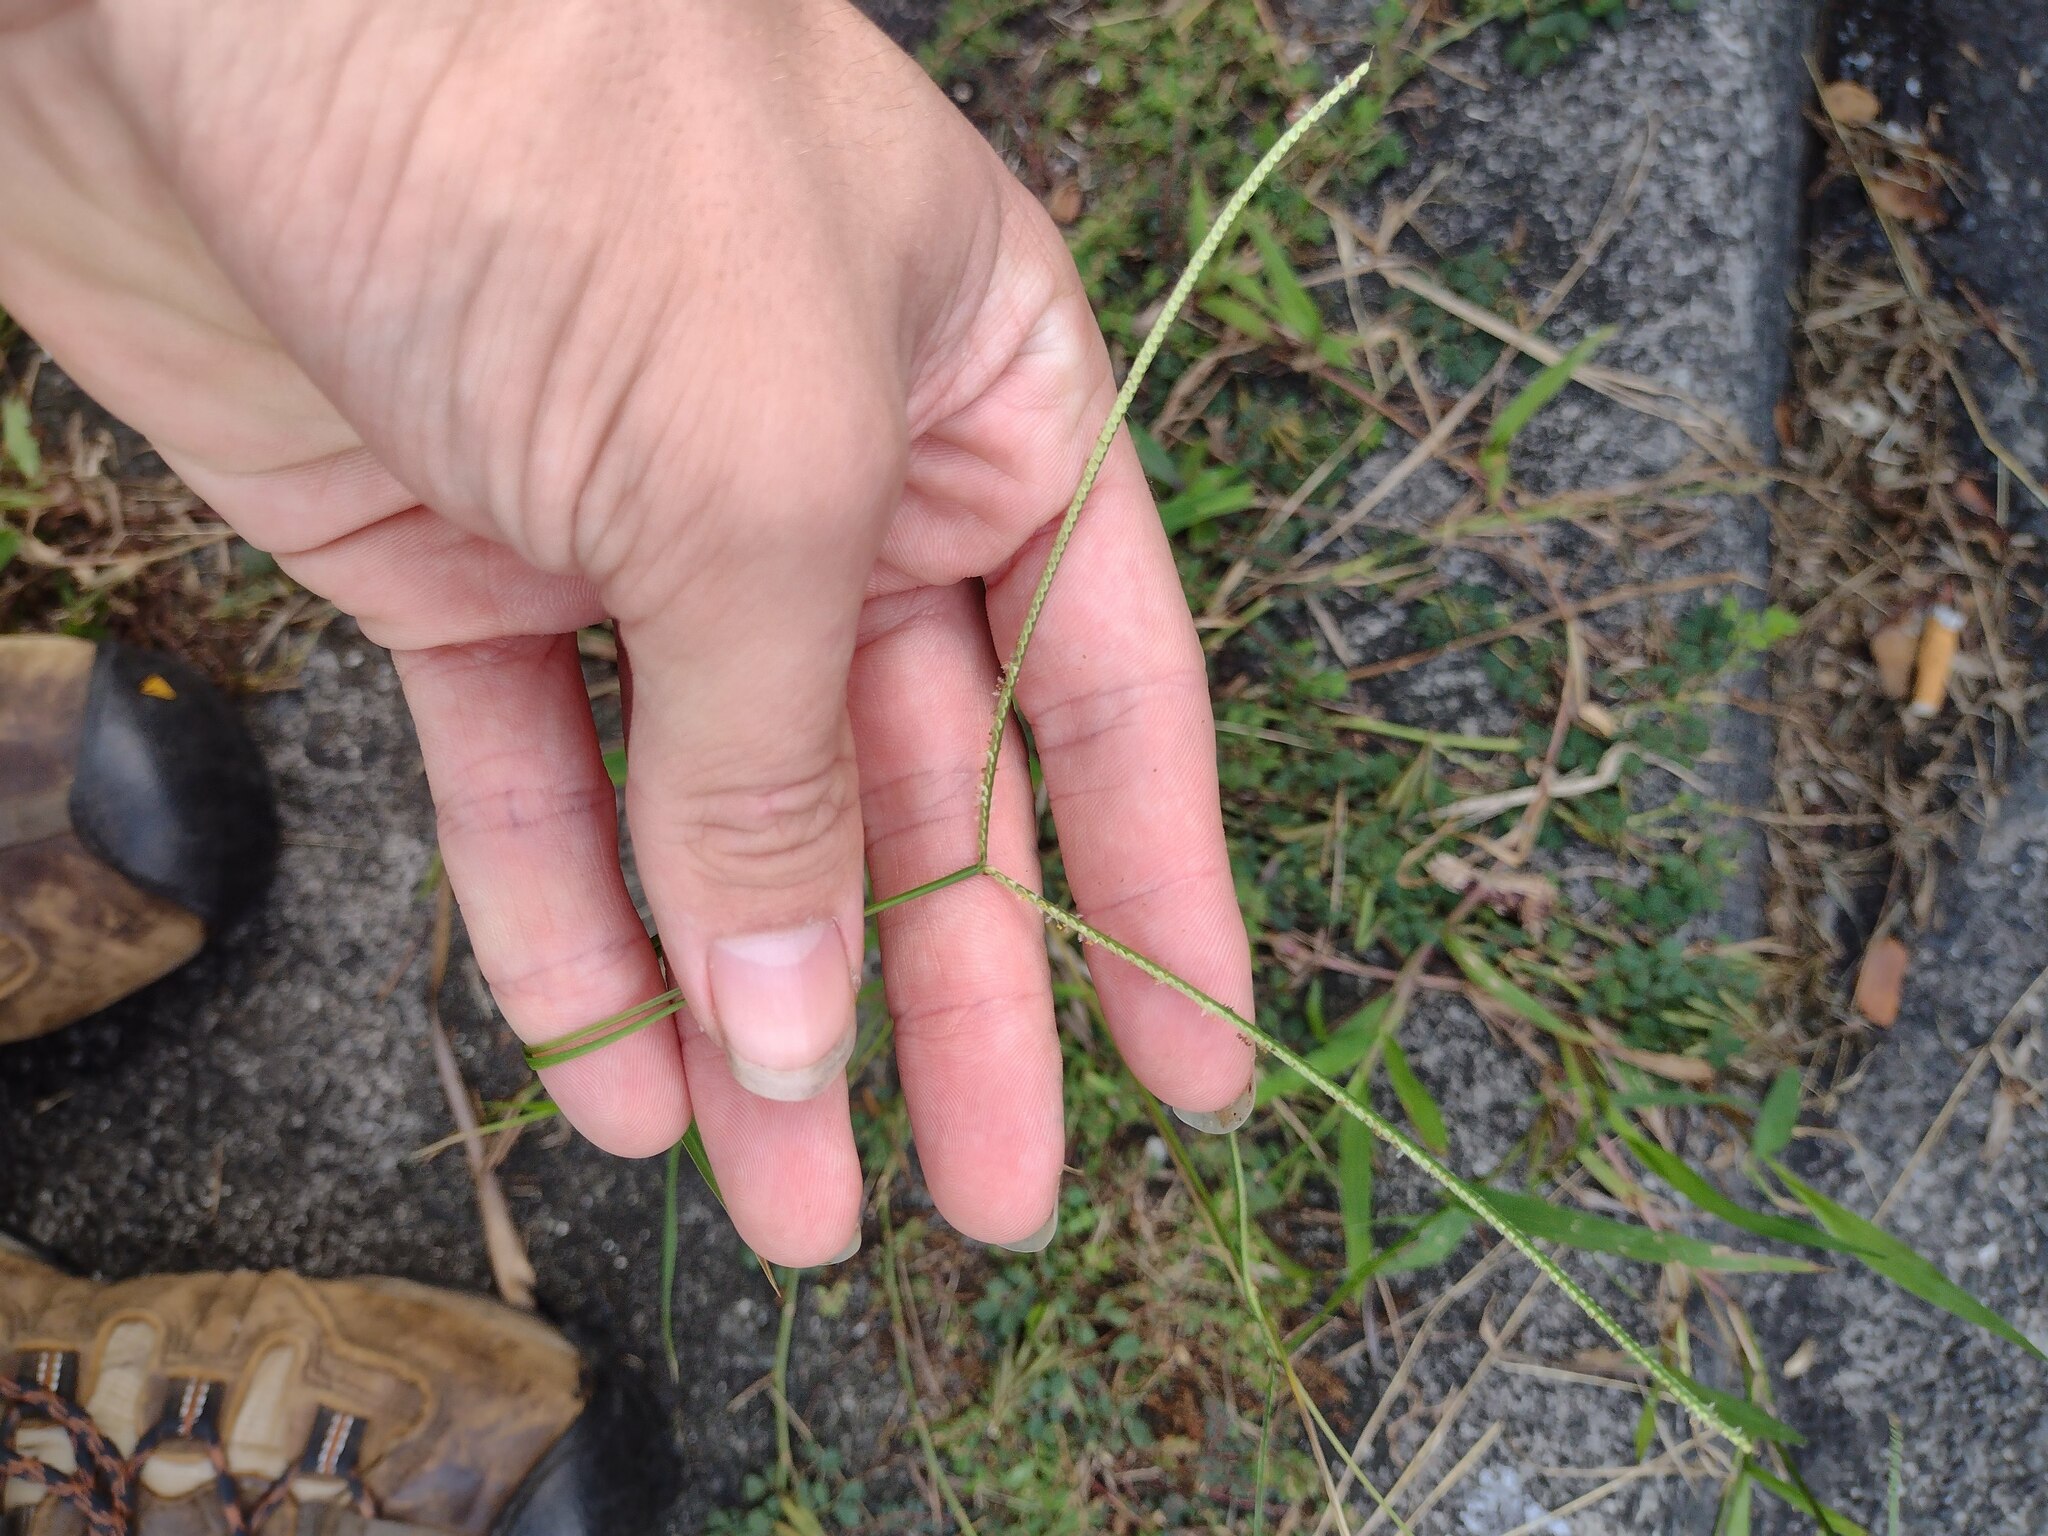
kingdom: Plantae
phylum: Tracheophyta
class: Liliopsida
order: Poales
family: Poaceae
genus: Paspalum
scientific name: Paspalum conjugatum
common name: Hilograss
